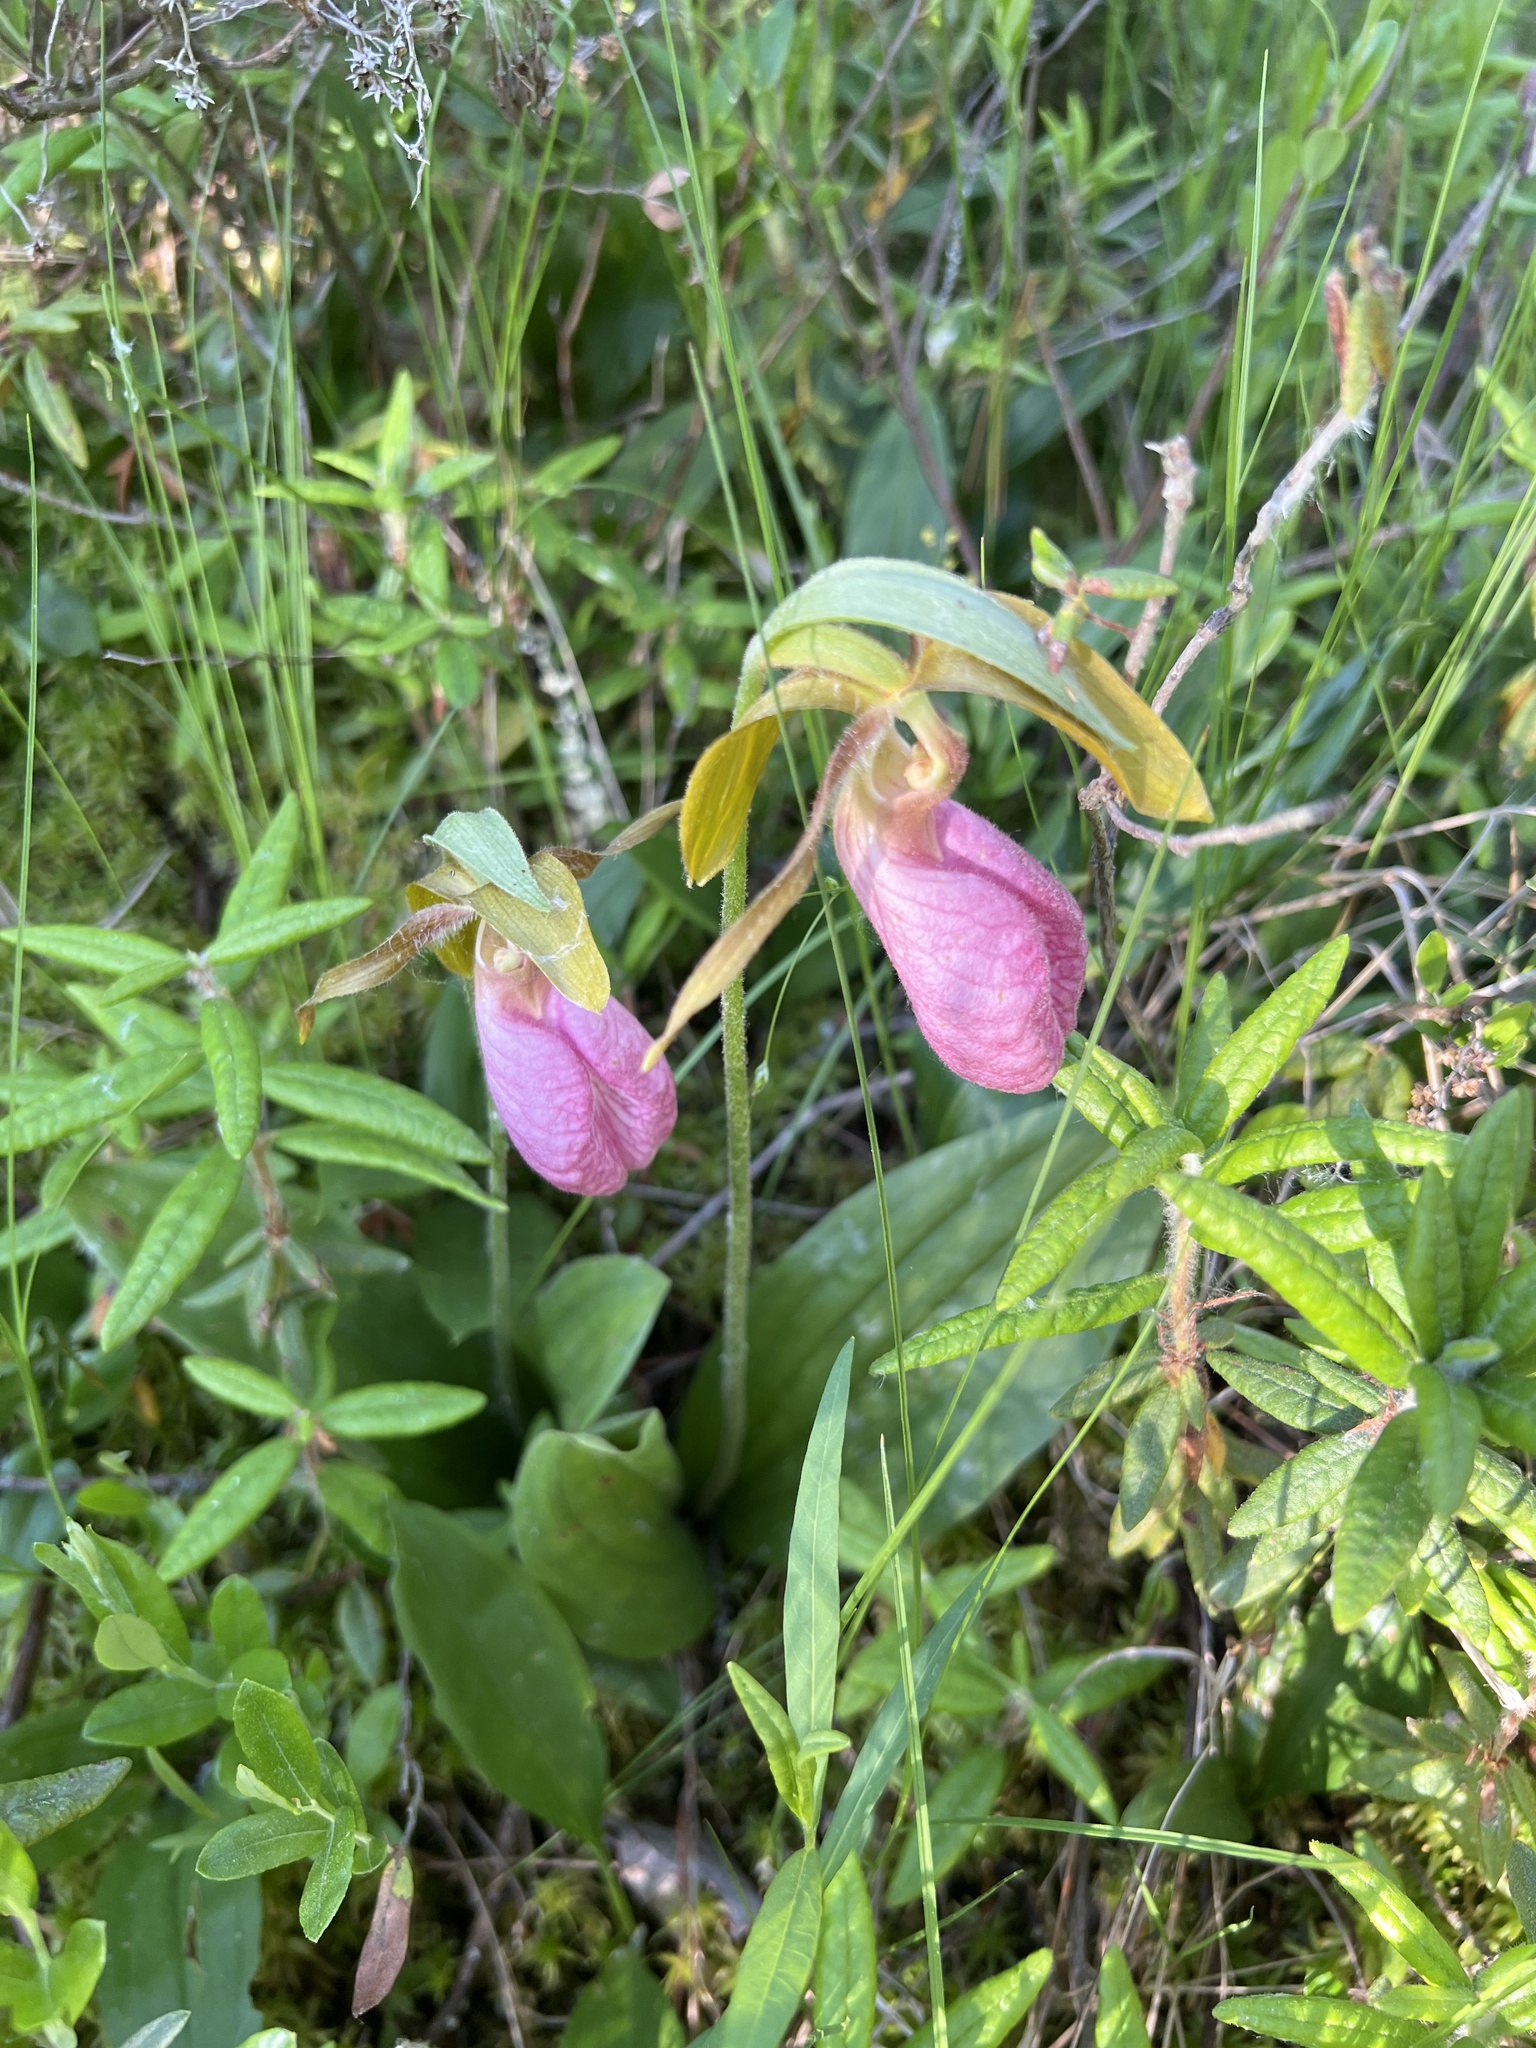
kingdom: Plantae
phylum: Tracheophyta
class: Liliopsida
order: Asparagales
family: Orchidaceae
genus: Cypripedium
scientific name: Cypripedium acaule
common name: Pink lady's-slipper
